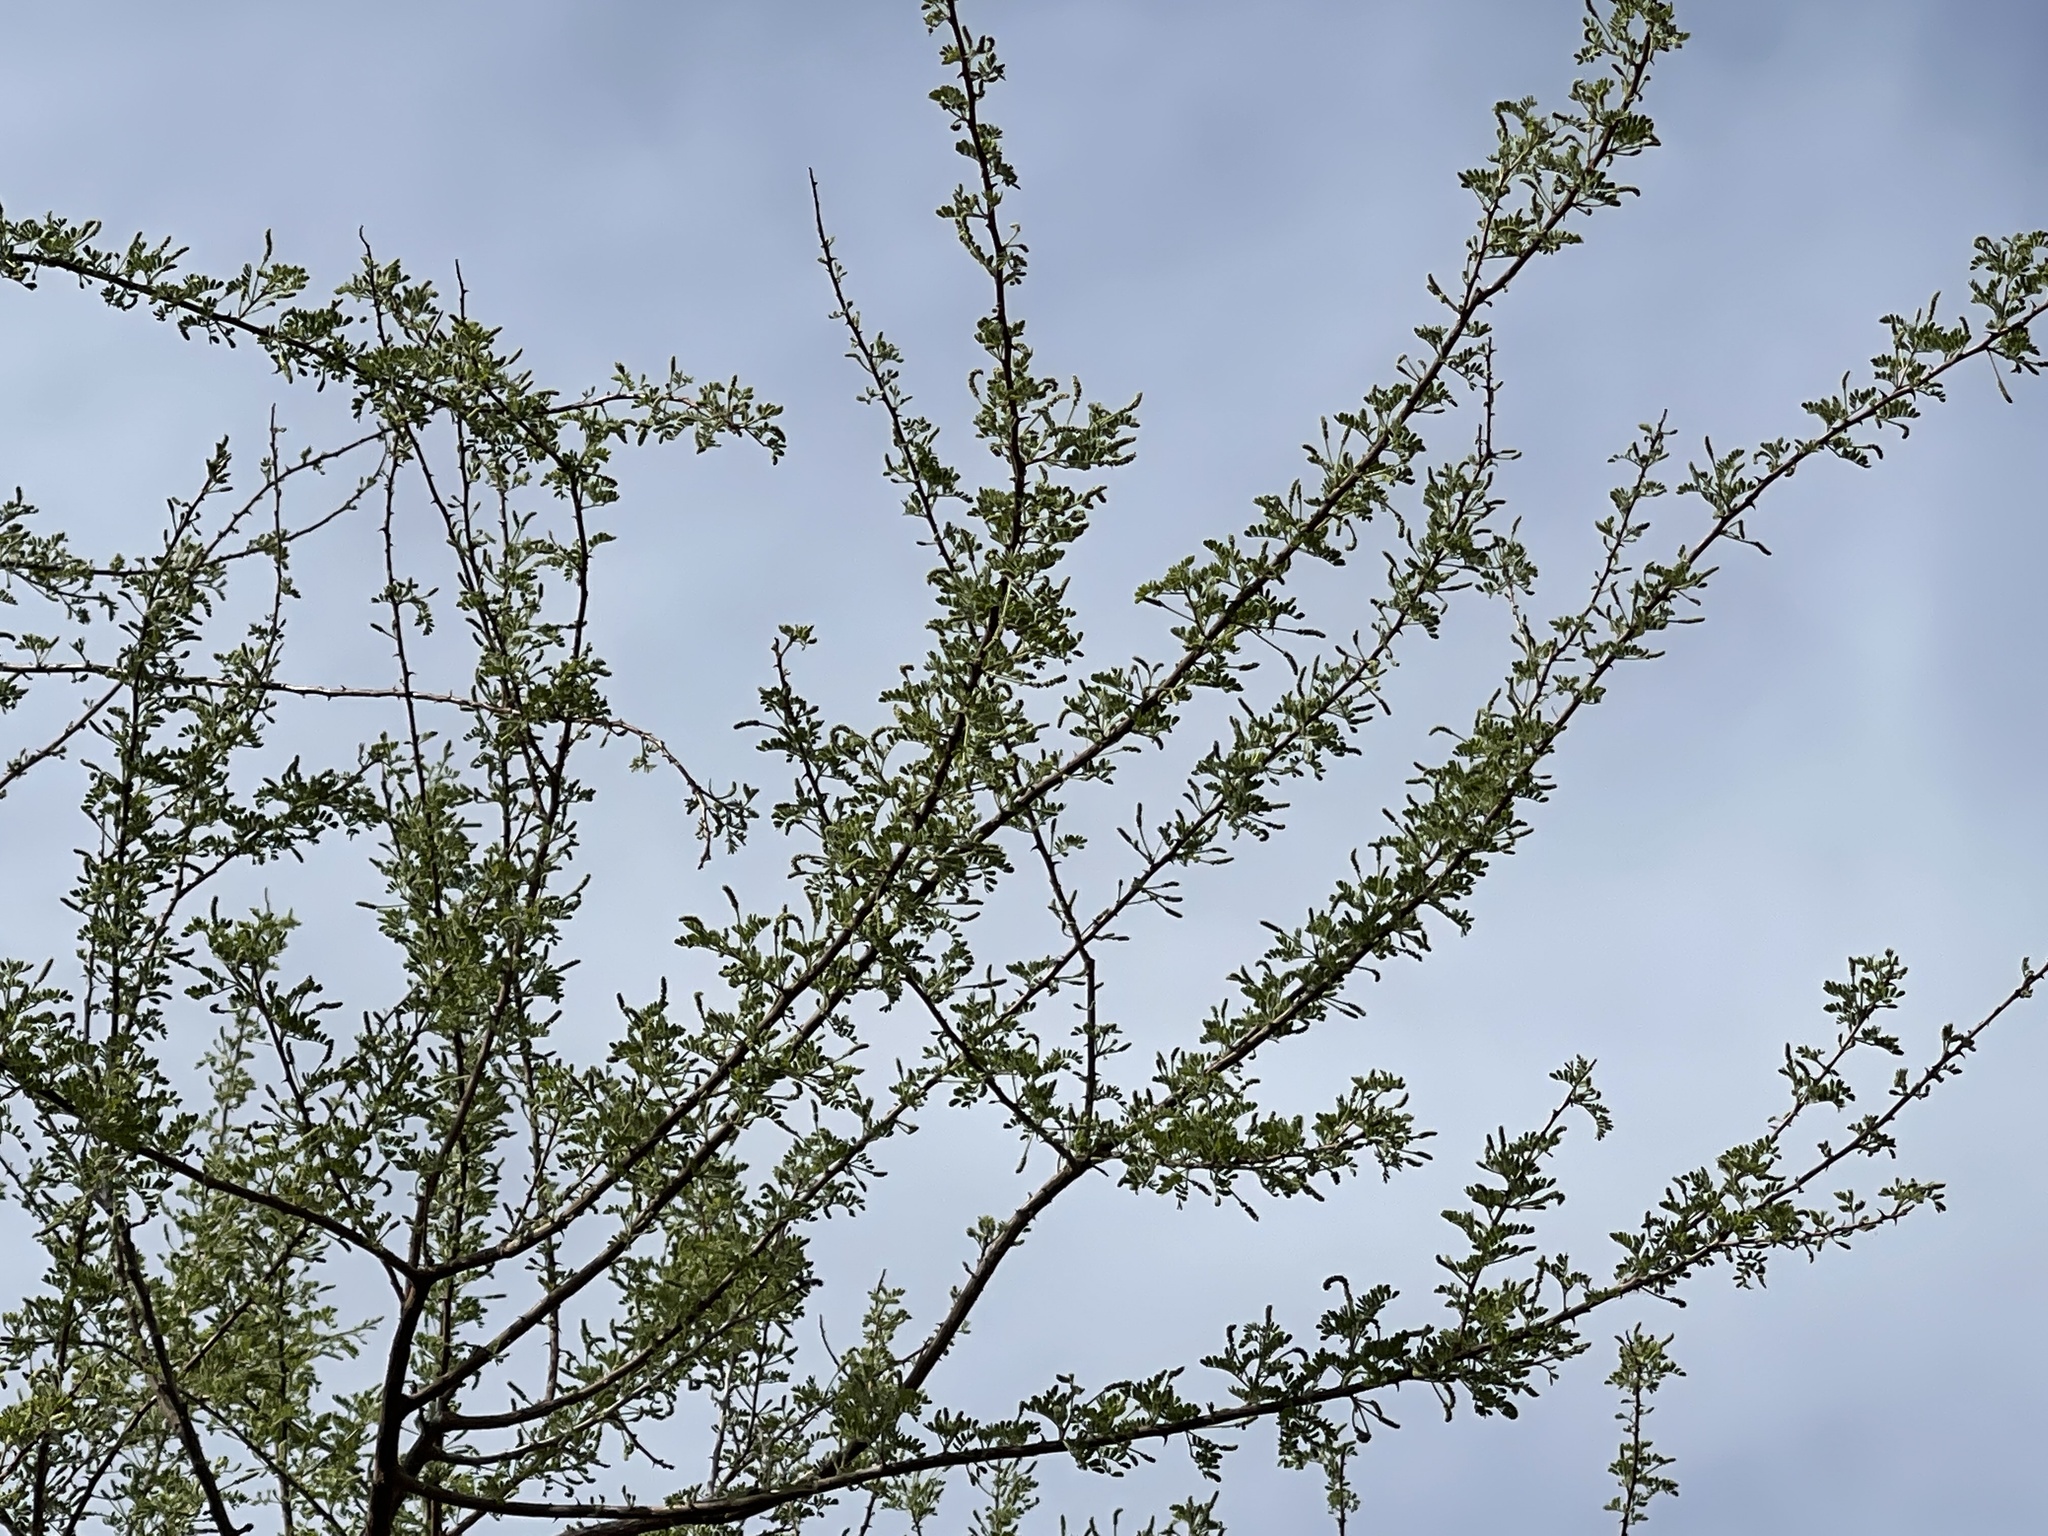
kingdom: Plantae
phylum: Tracheophyta
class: Magnoliopsida
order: Fabales
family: Fabaceae
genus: Senegalia
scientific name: Senegalia greggii
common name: Texas-mimosa
